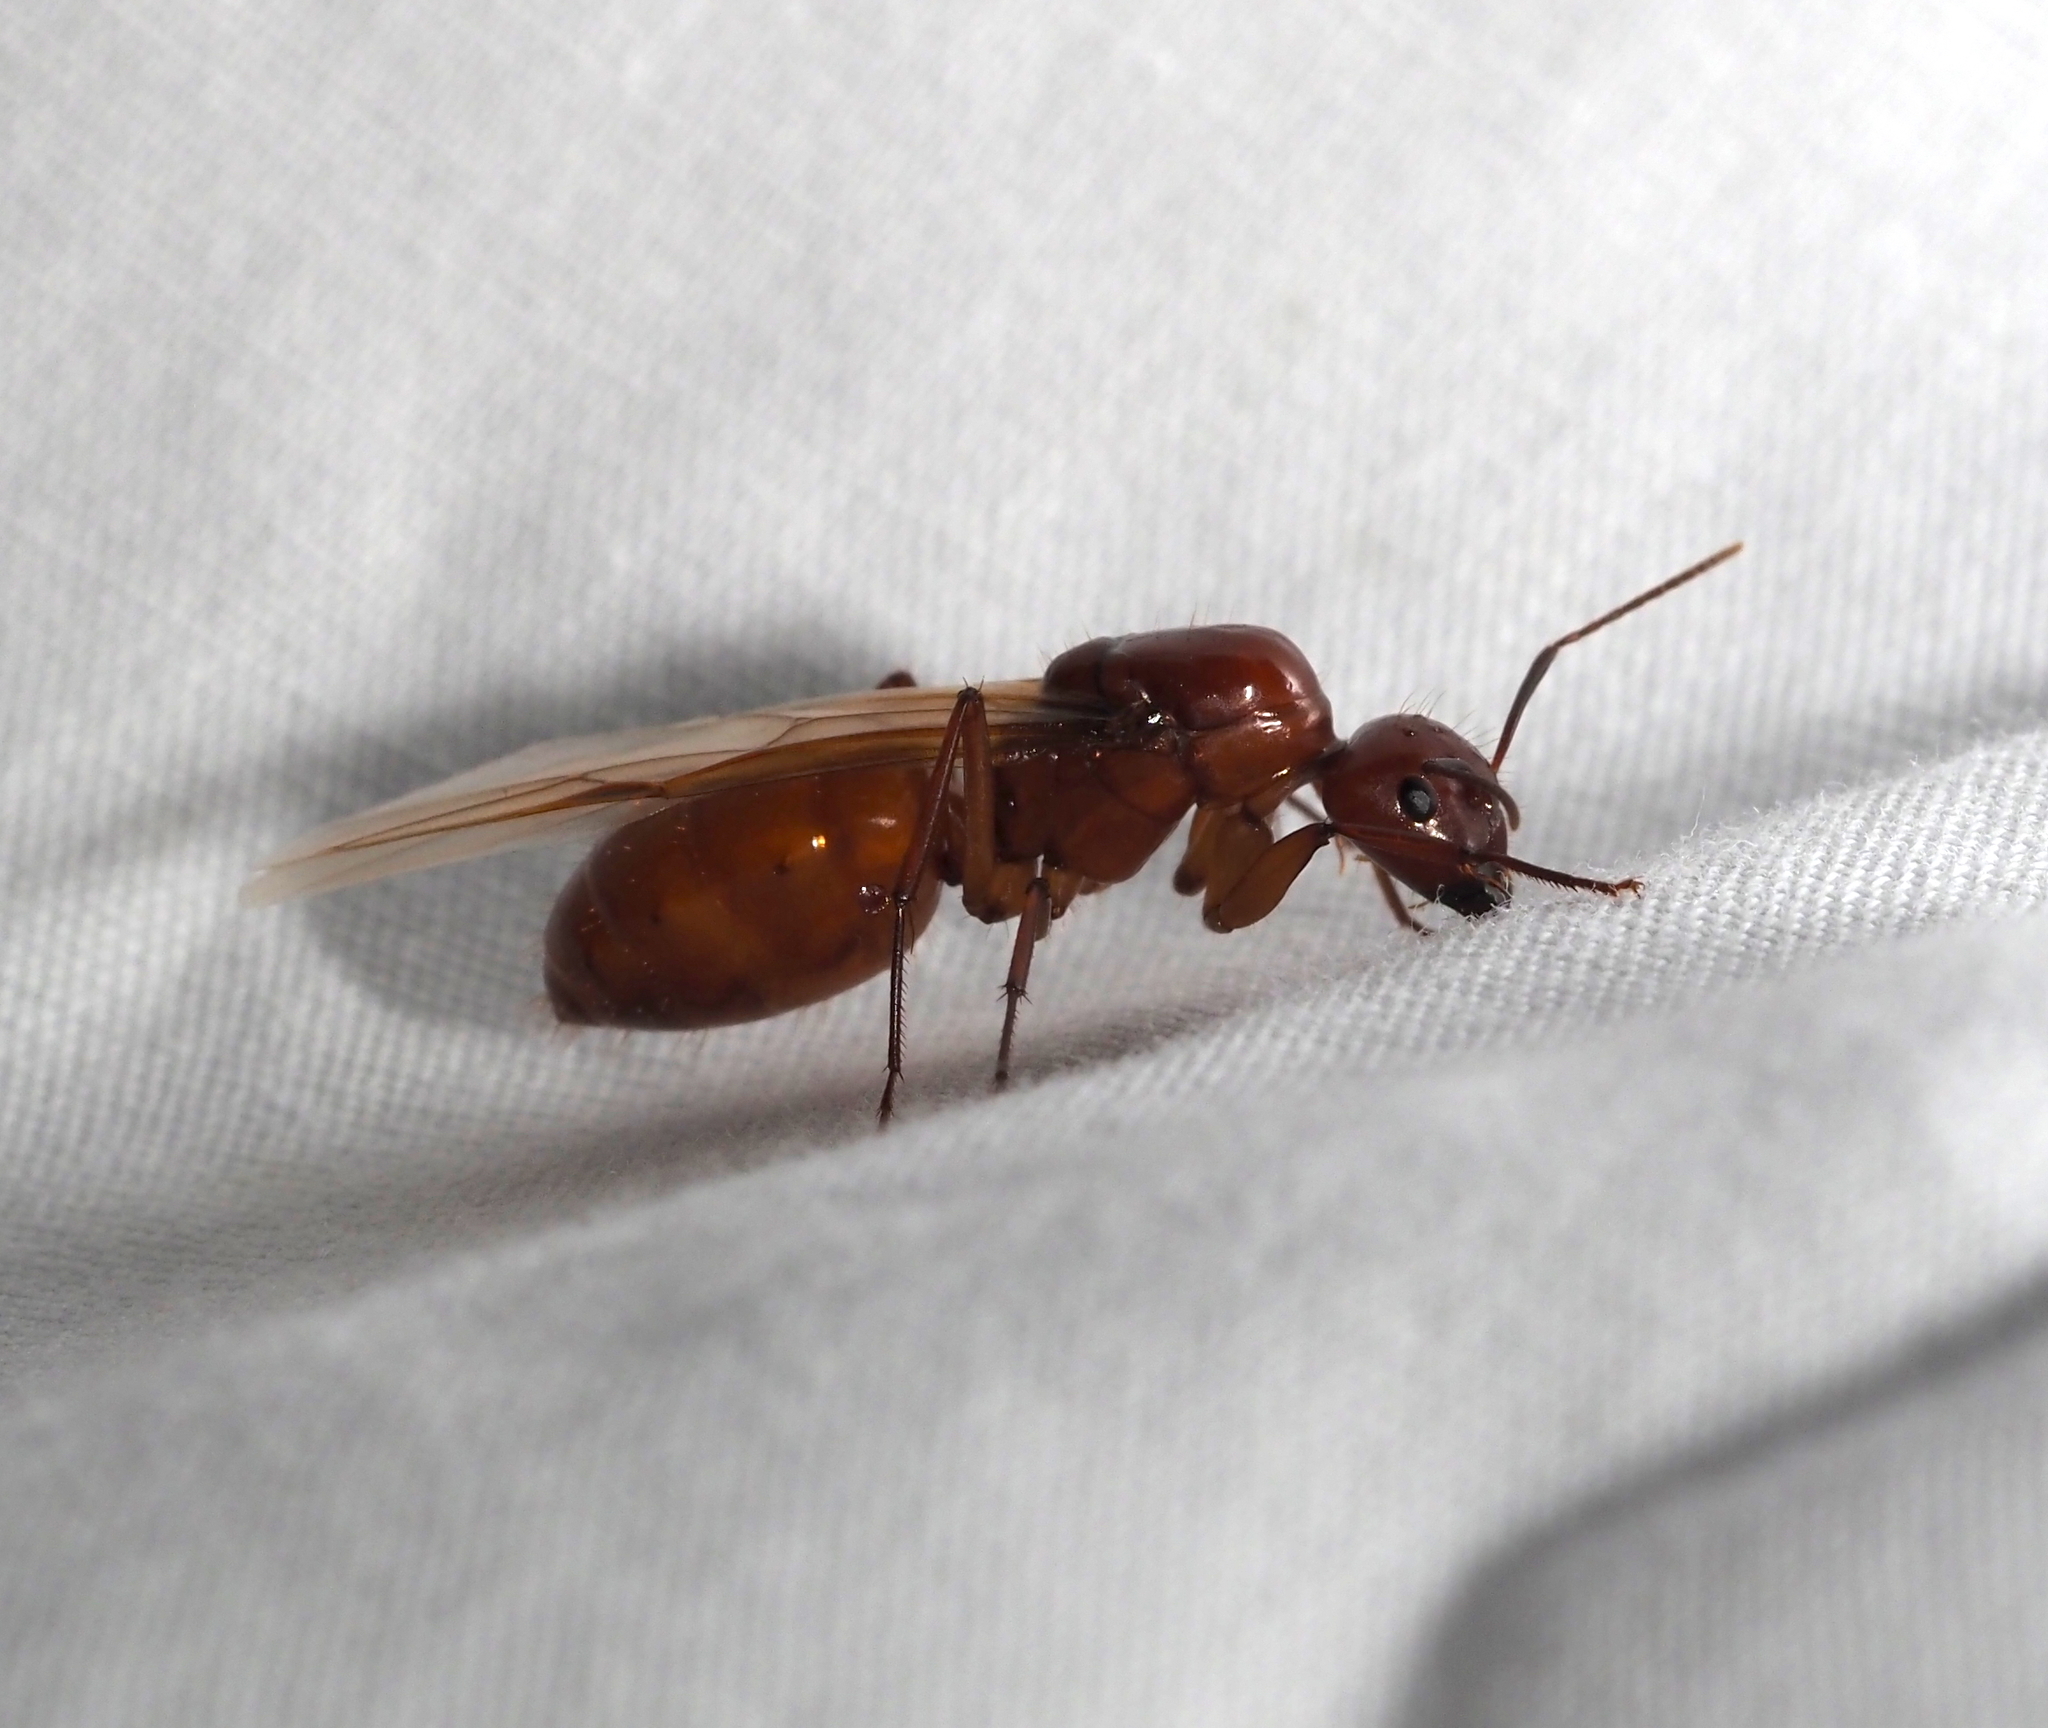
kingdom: Animalia
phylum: Arthropoda
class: Insecta
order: Hymenoptera
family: Formicidae
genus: Camponotus
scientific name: Camponotus castaneus
